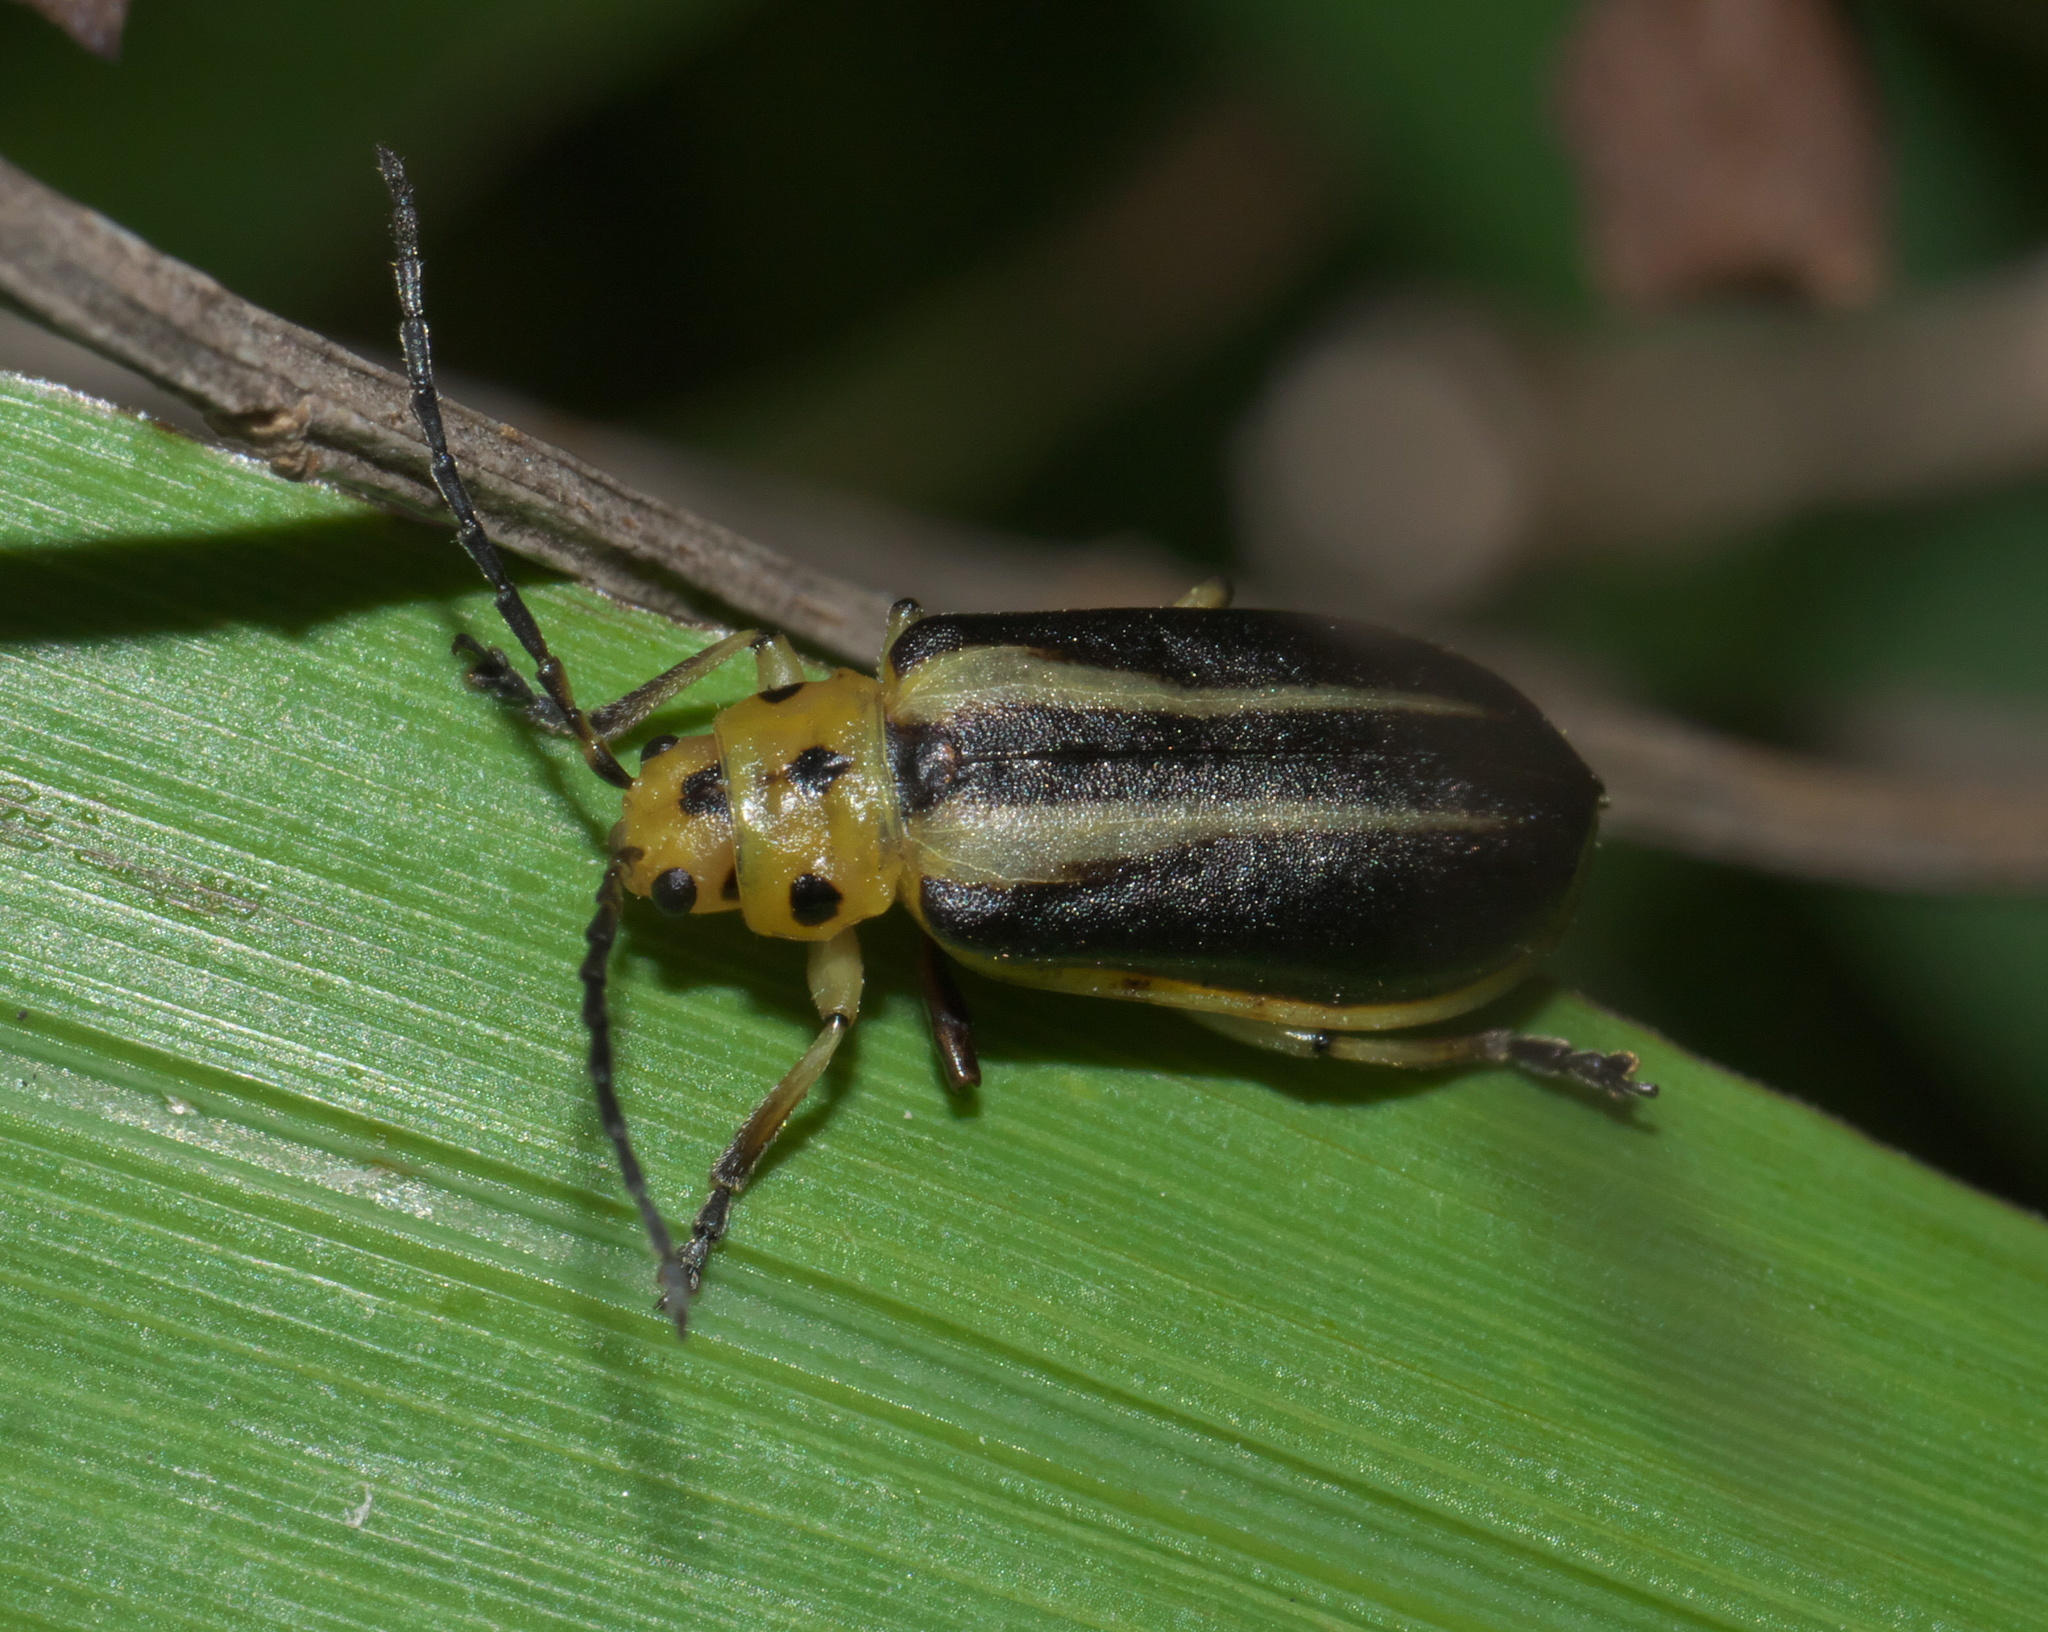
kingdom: Animalia
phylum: Arthropoda
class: Insecta
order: Coleoptera
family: Chrysomelidae
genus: Trirhabda
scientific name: Trirhabda bacharidis
